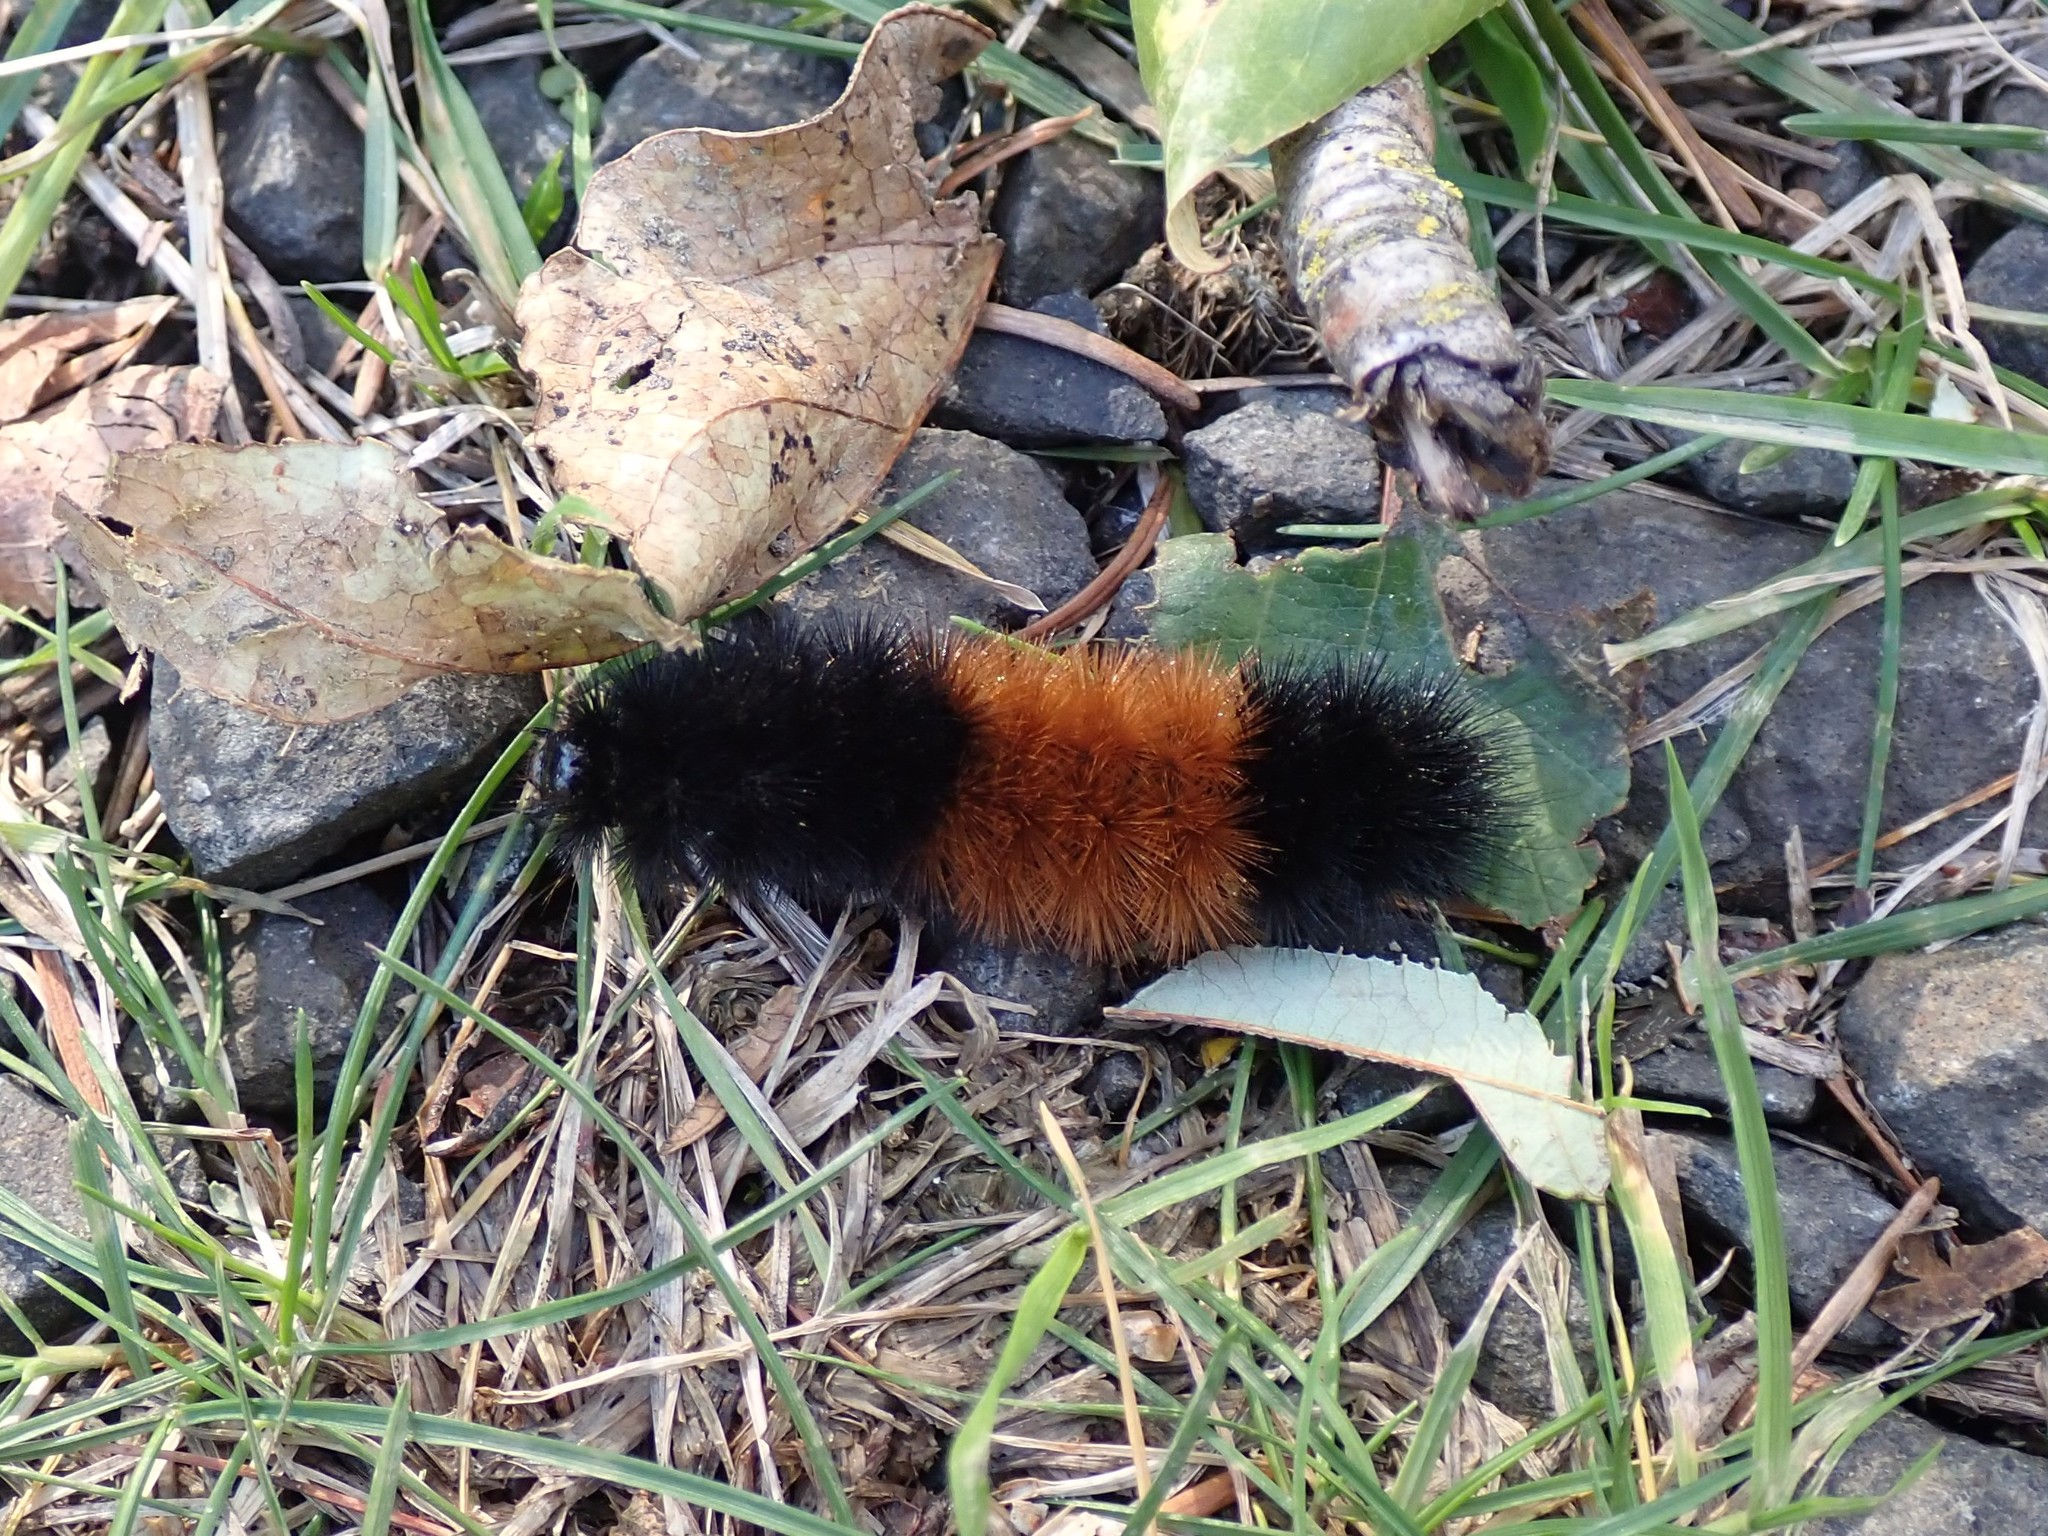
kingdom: Animalia
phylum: Arthropoda
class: Insecta
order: Lepidoptera
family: Erebidae
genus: Pyrrharctia
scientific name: Pyrrharctia isabella
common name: Isabella tiger moth
